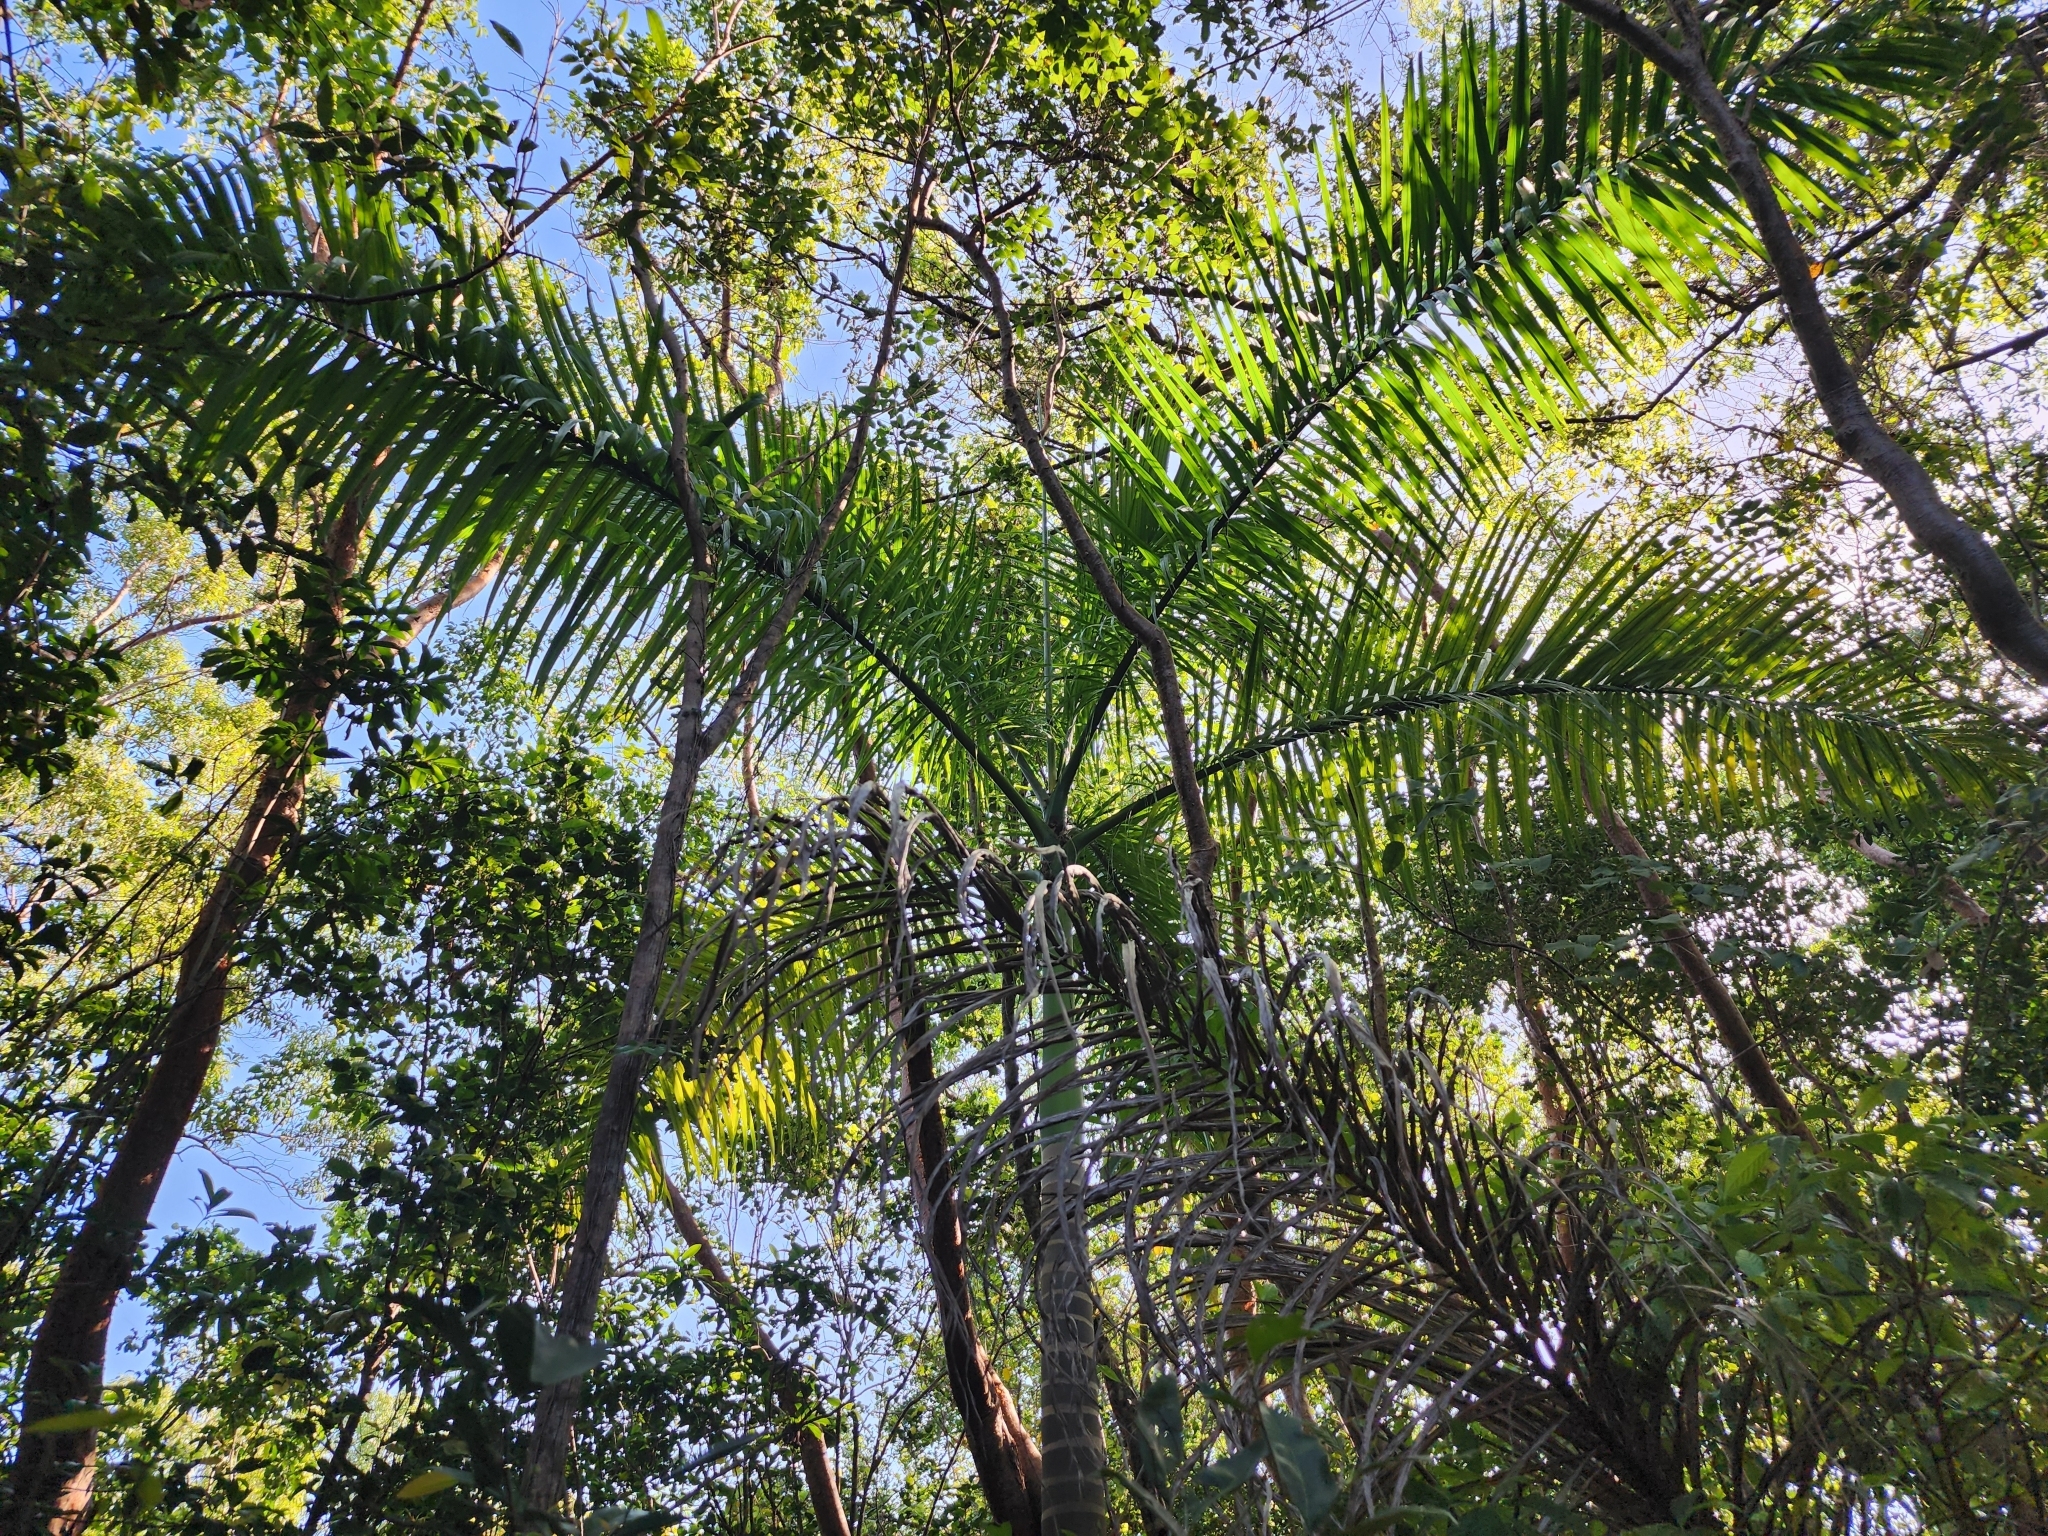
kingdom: Plantae
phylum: Tracheophyta
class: Liliopsida
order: Arecales
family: Arecaceae
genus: Roystonea
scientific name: Roystonea regia
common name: Florida royal palm
